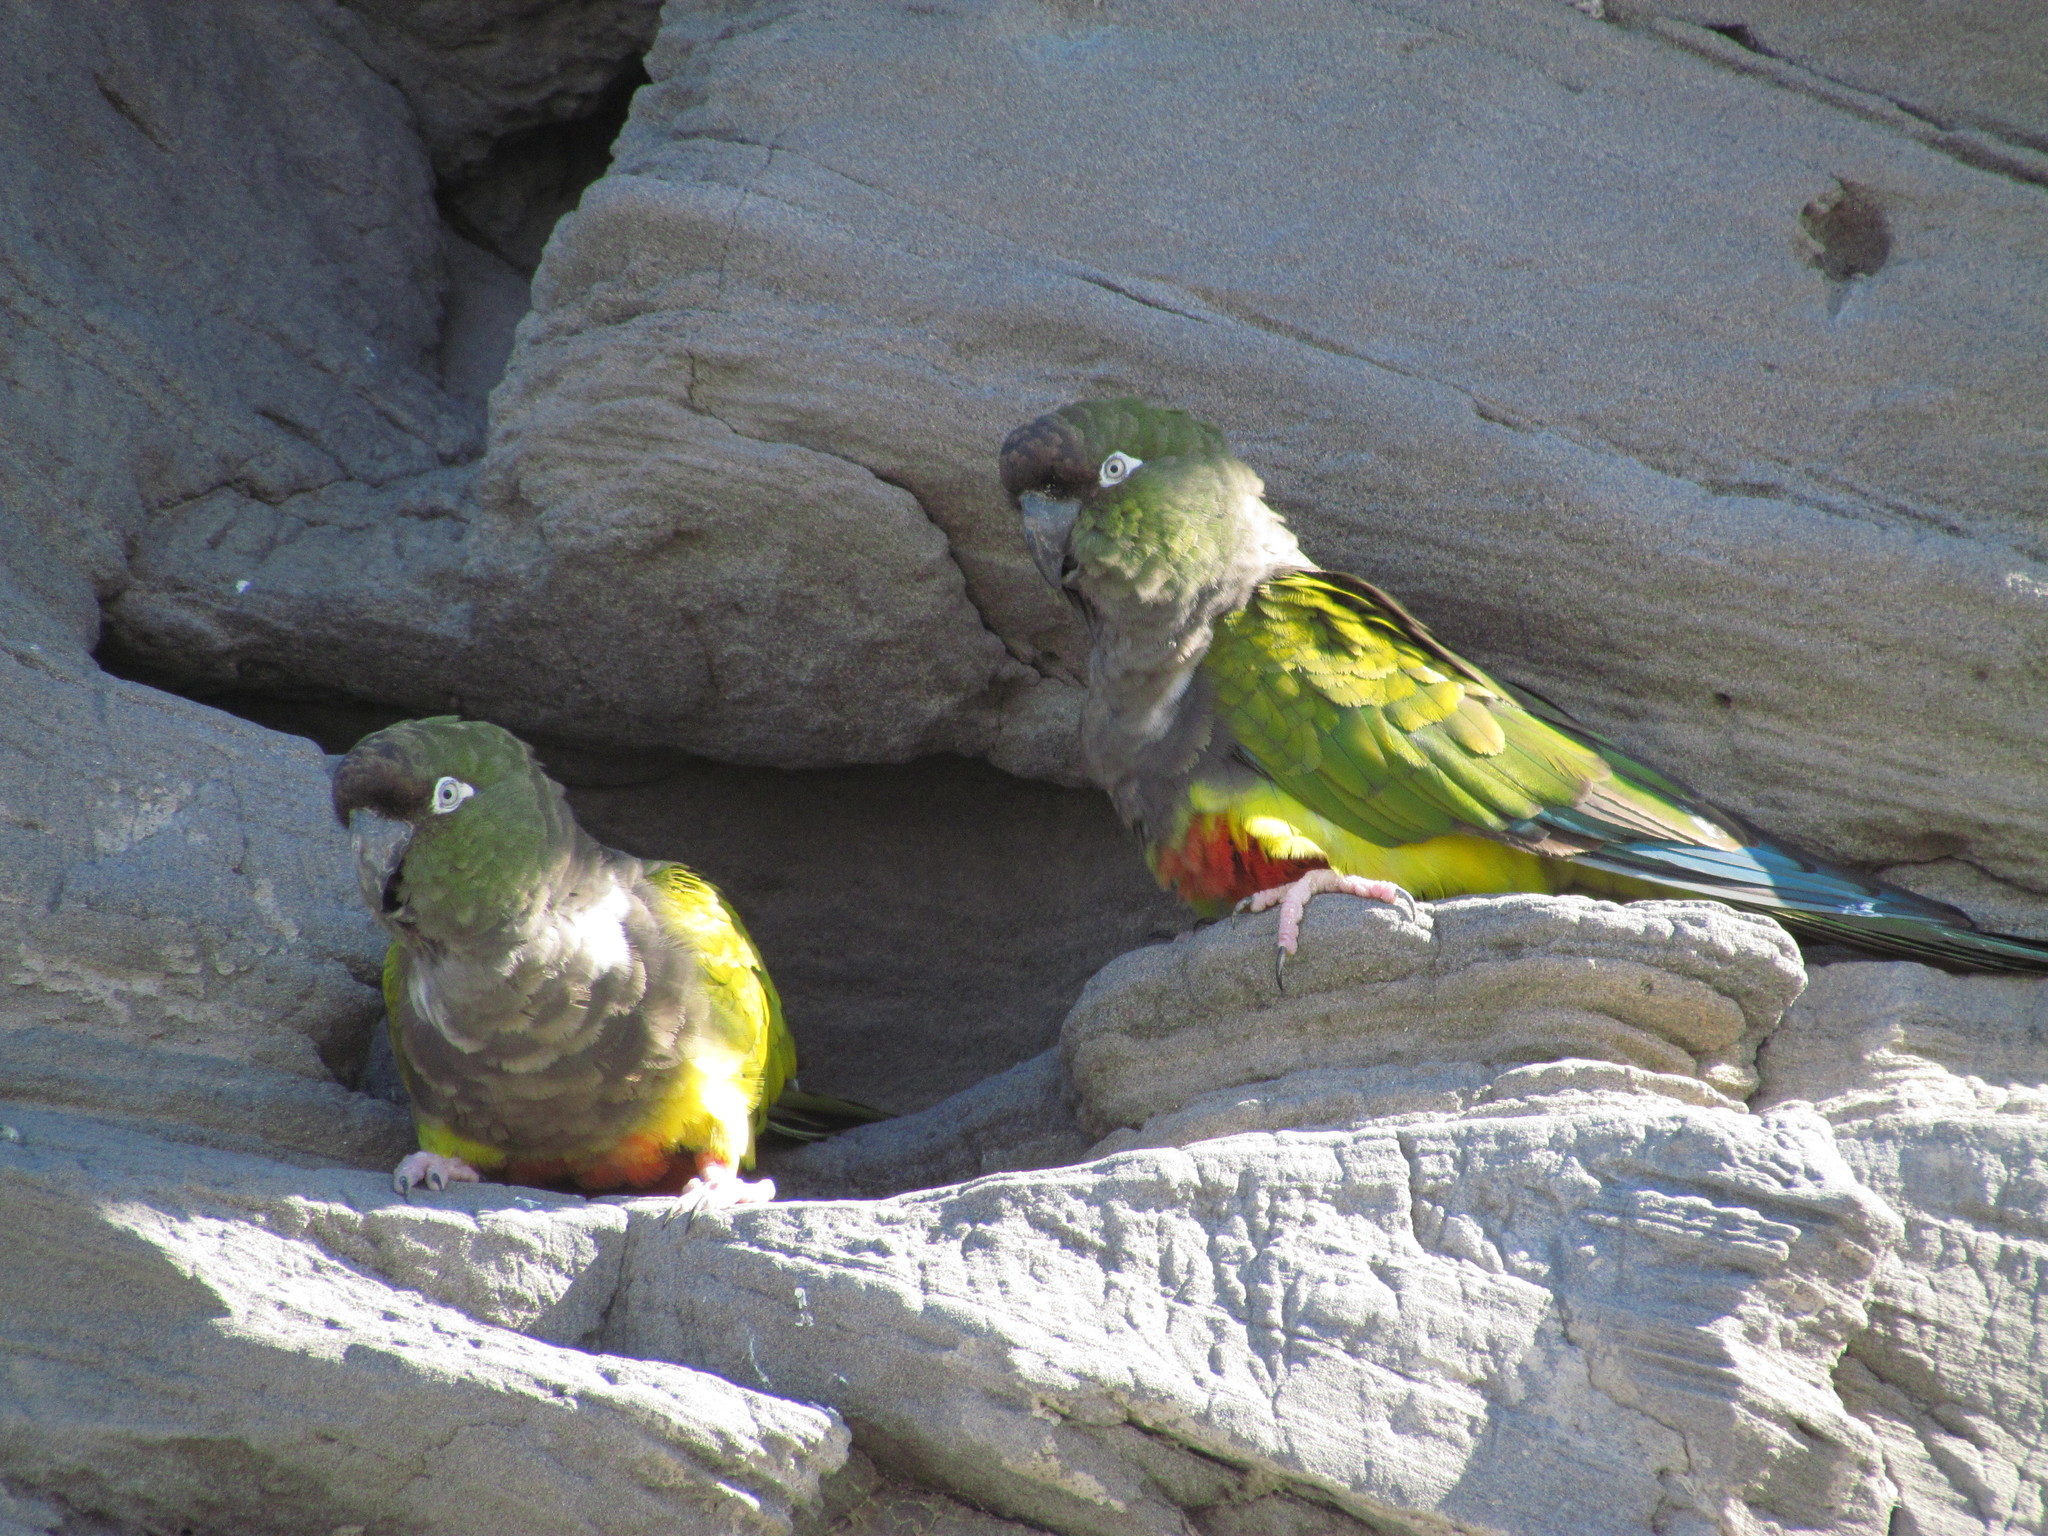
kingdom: Animalia
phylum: Chordata
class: Aves
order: Psittaciformes
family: Psittacidae
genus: Cyanoliseus
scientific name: Cyanoliseus patagonus
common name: Burrowing parrot
